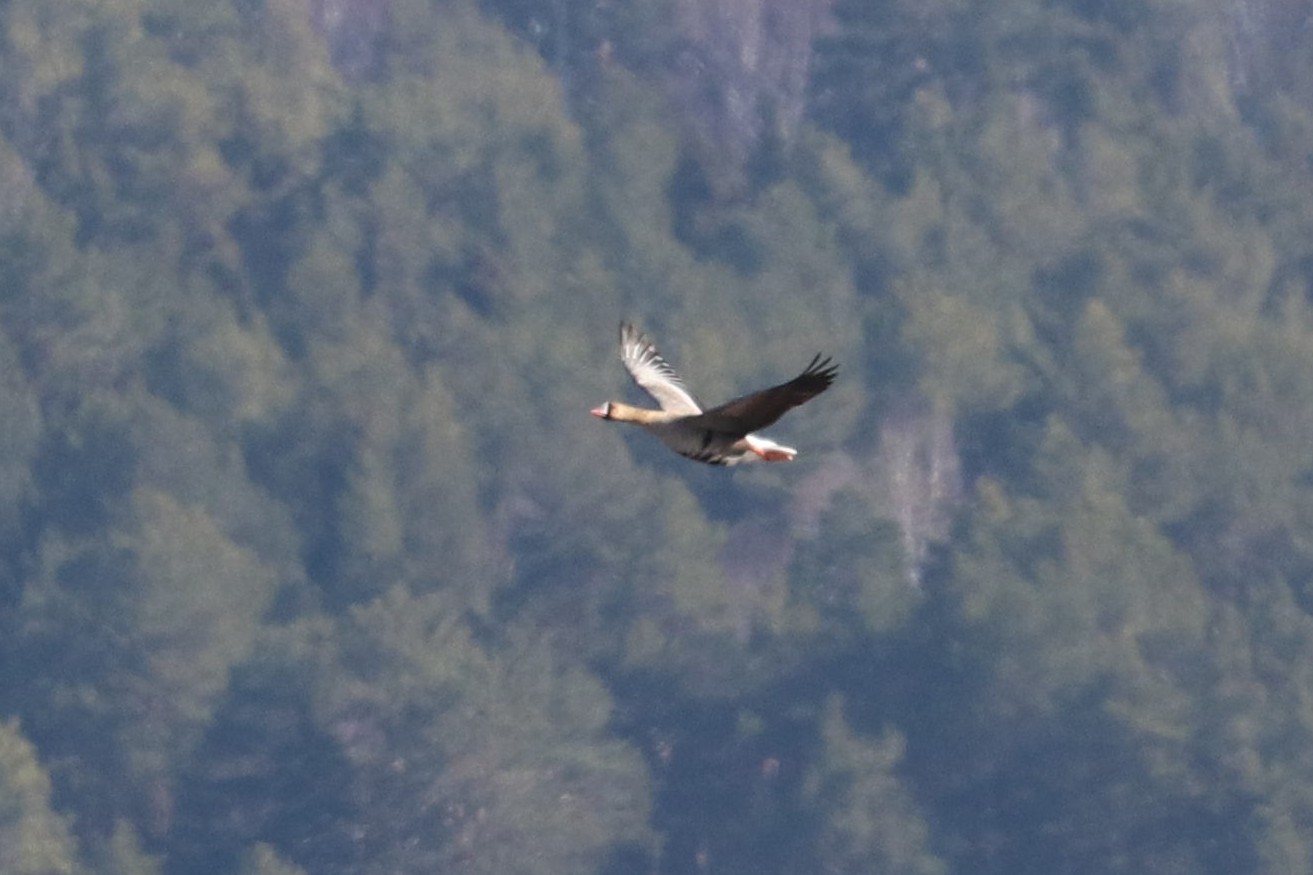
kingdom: Animalia
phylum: Chordata
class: Aves
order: Anseriformes
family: Anatidae
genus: Anser
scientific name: Anser albifrons
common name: Greater white-fronted goose
